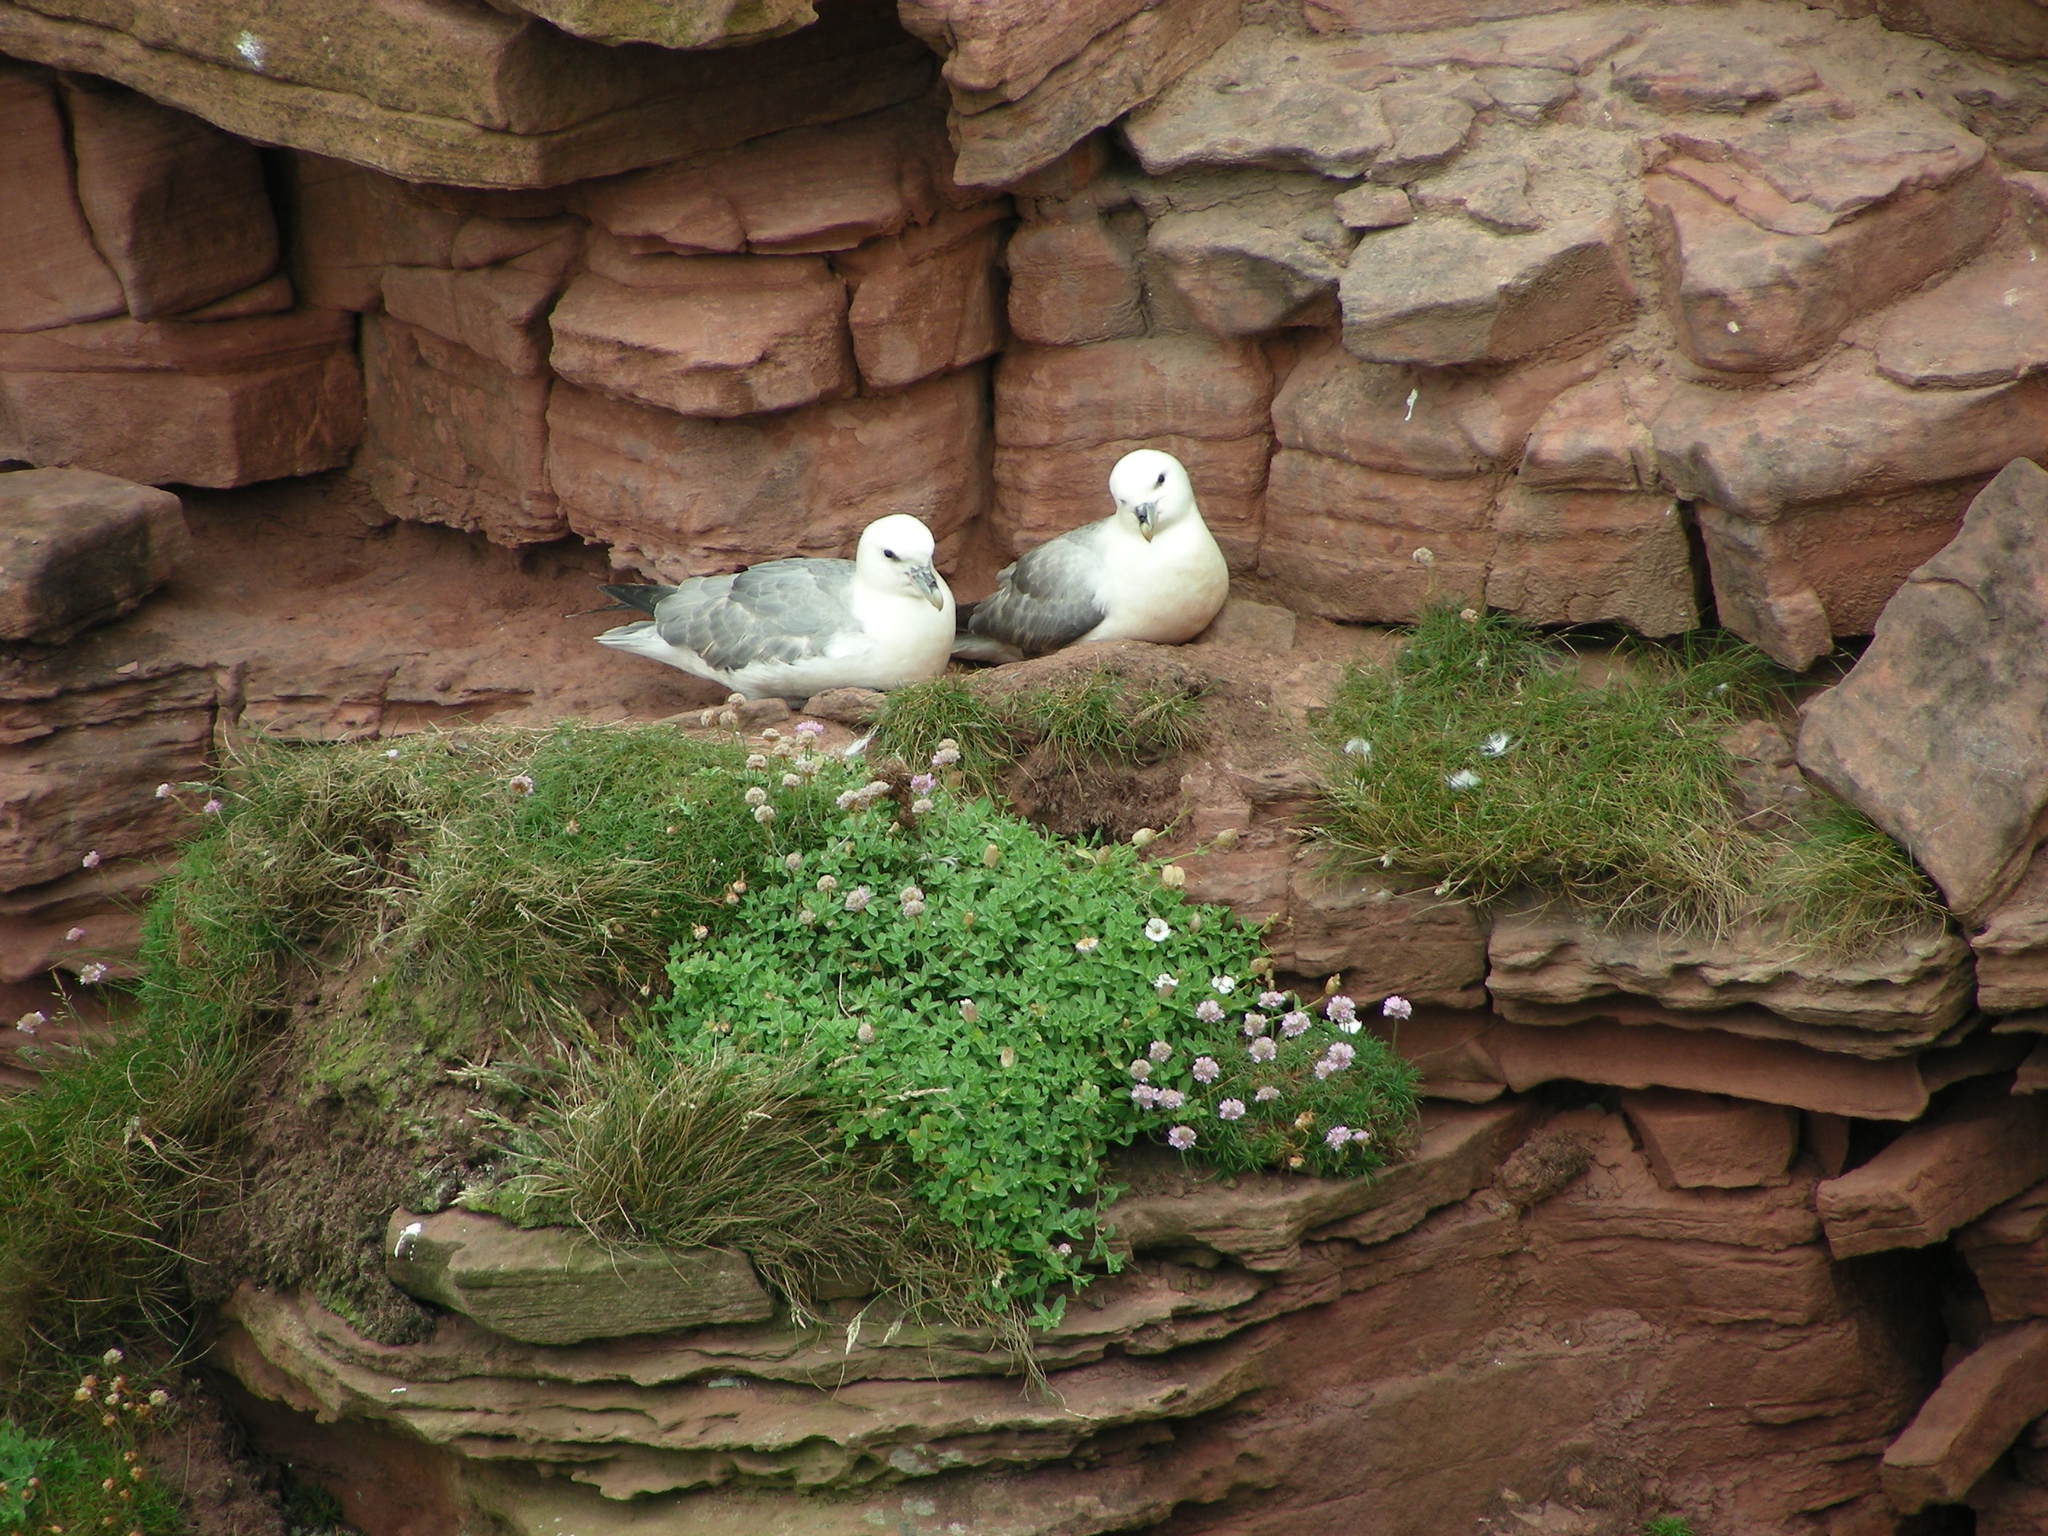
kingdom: Animalia
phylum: Chordata
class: Aves
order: Procellariiformes
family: Procellariidae
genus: Fulmarus
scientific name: Fulmarus glacialis
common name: Northern fulmar
